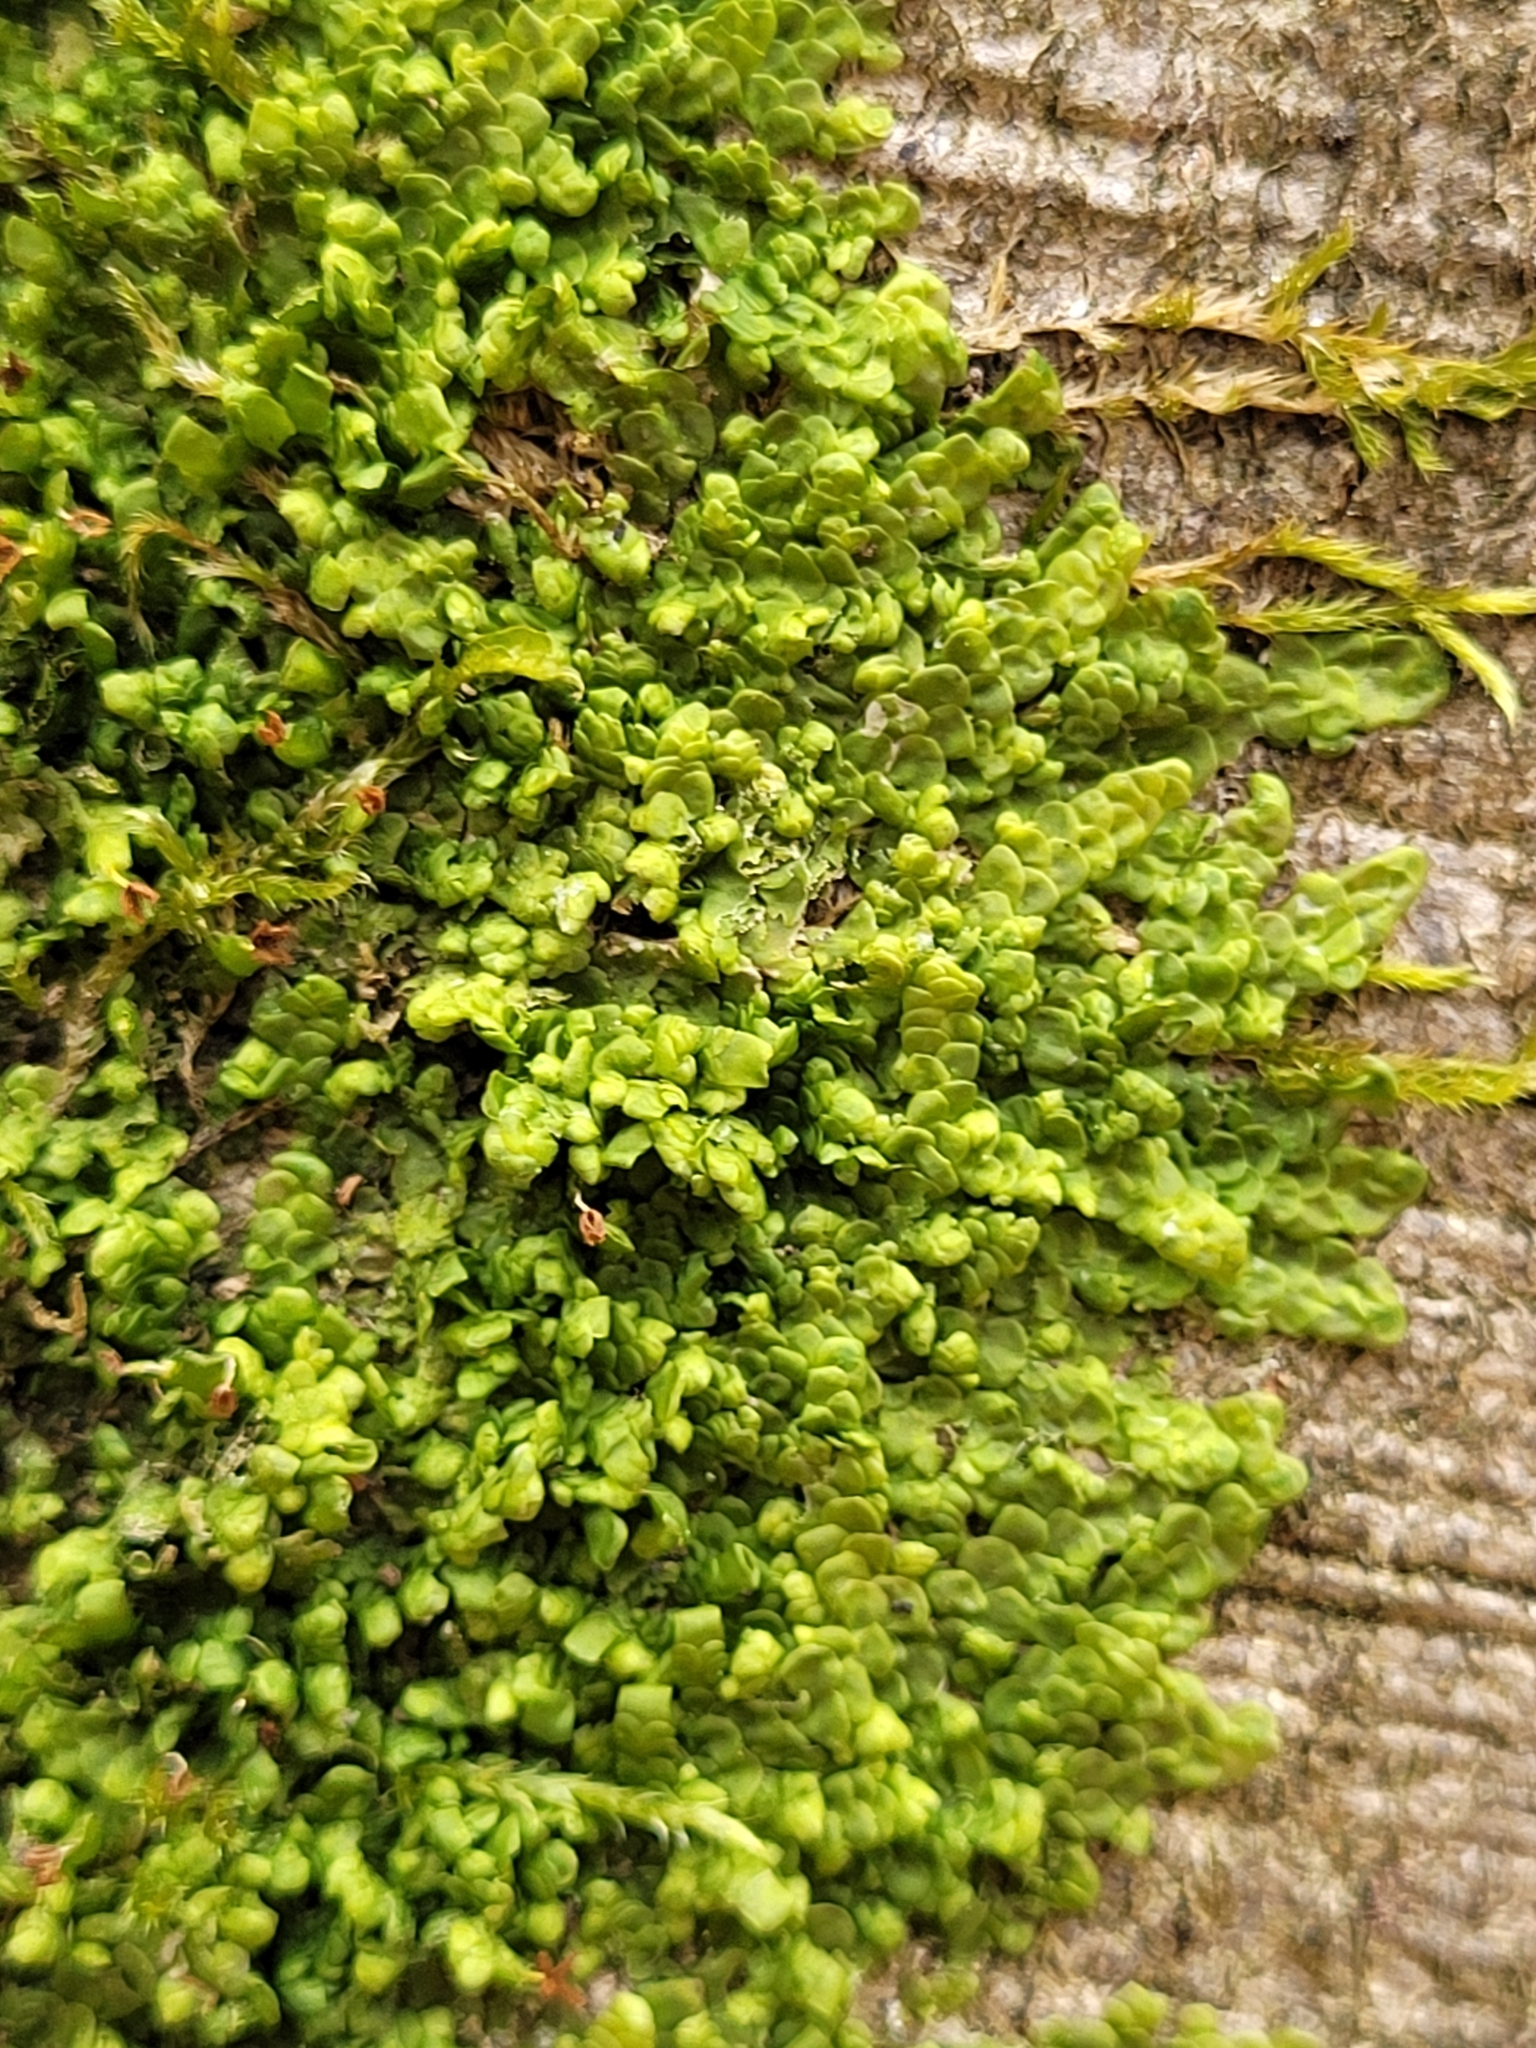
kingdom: Plantae
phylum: Marchantiophyta
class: Jungermanniopsida
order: Porellales
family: Radulaceae
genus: Radula
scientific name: Radula complanata
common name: Flat-leaved scalewort
